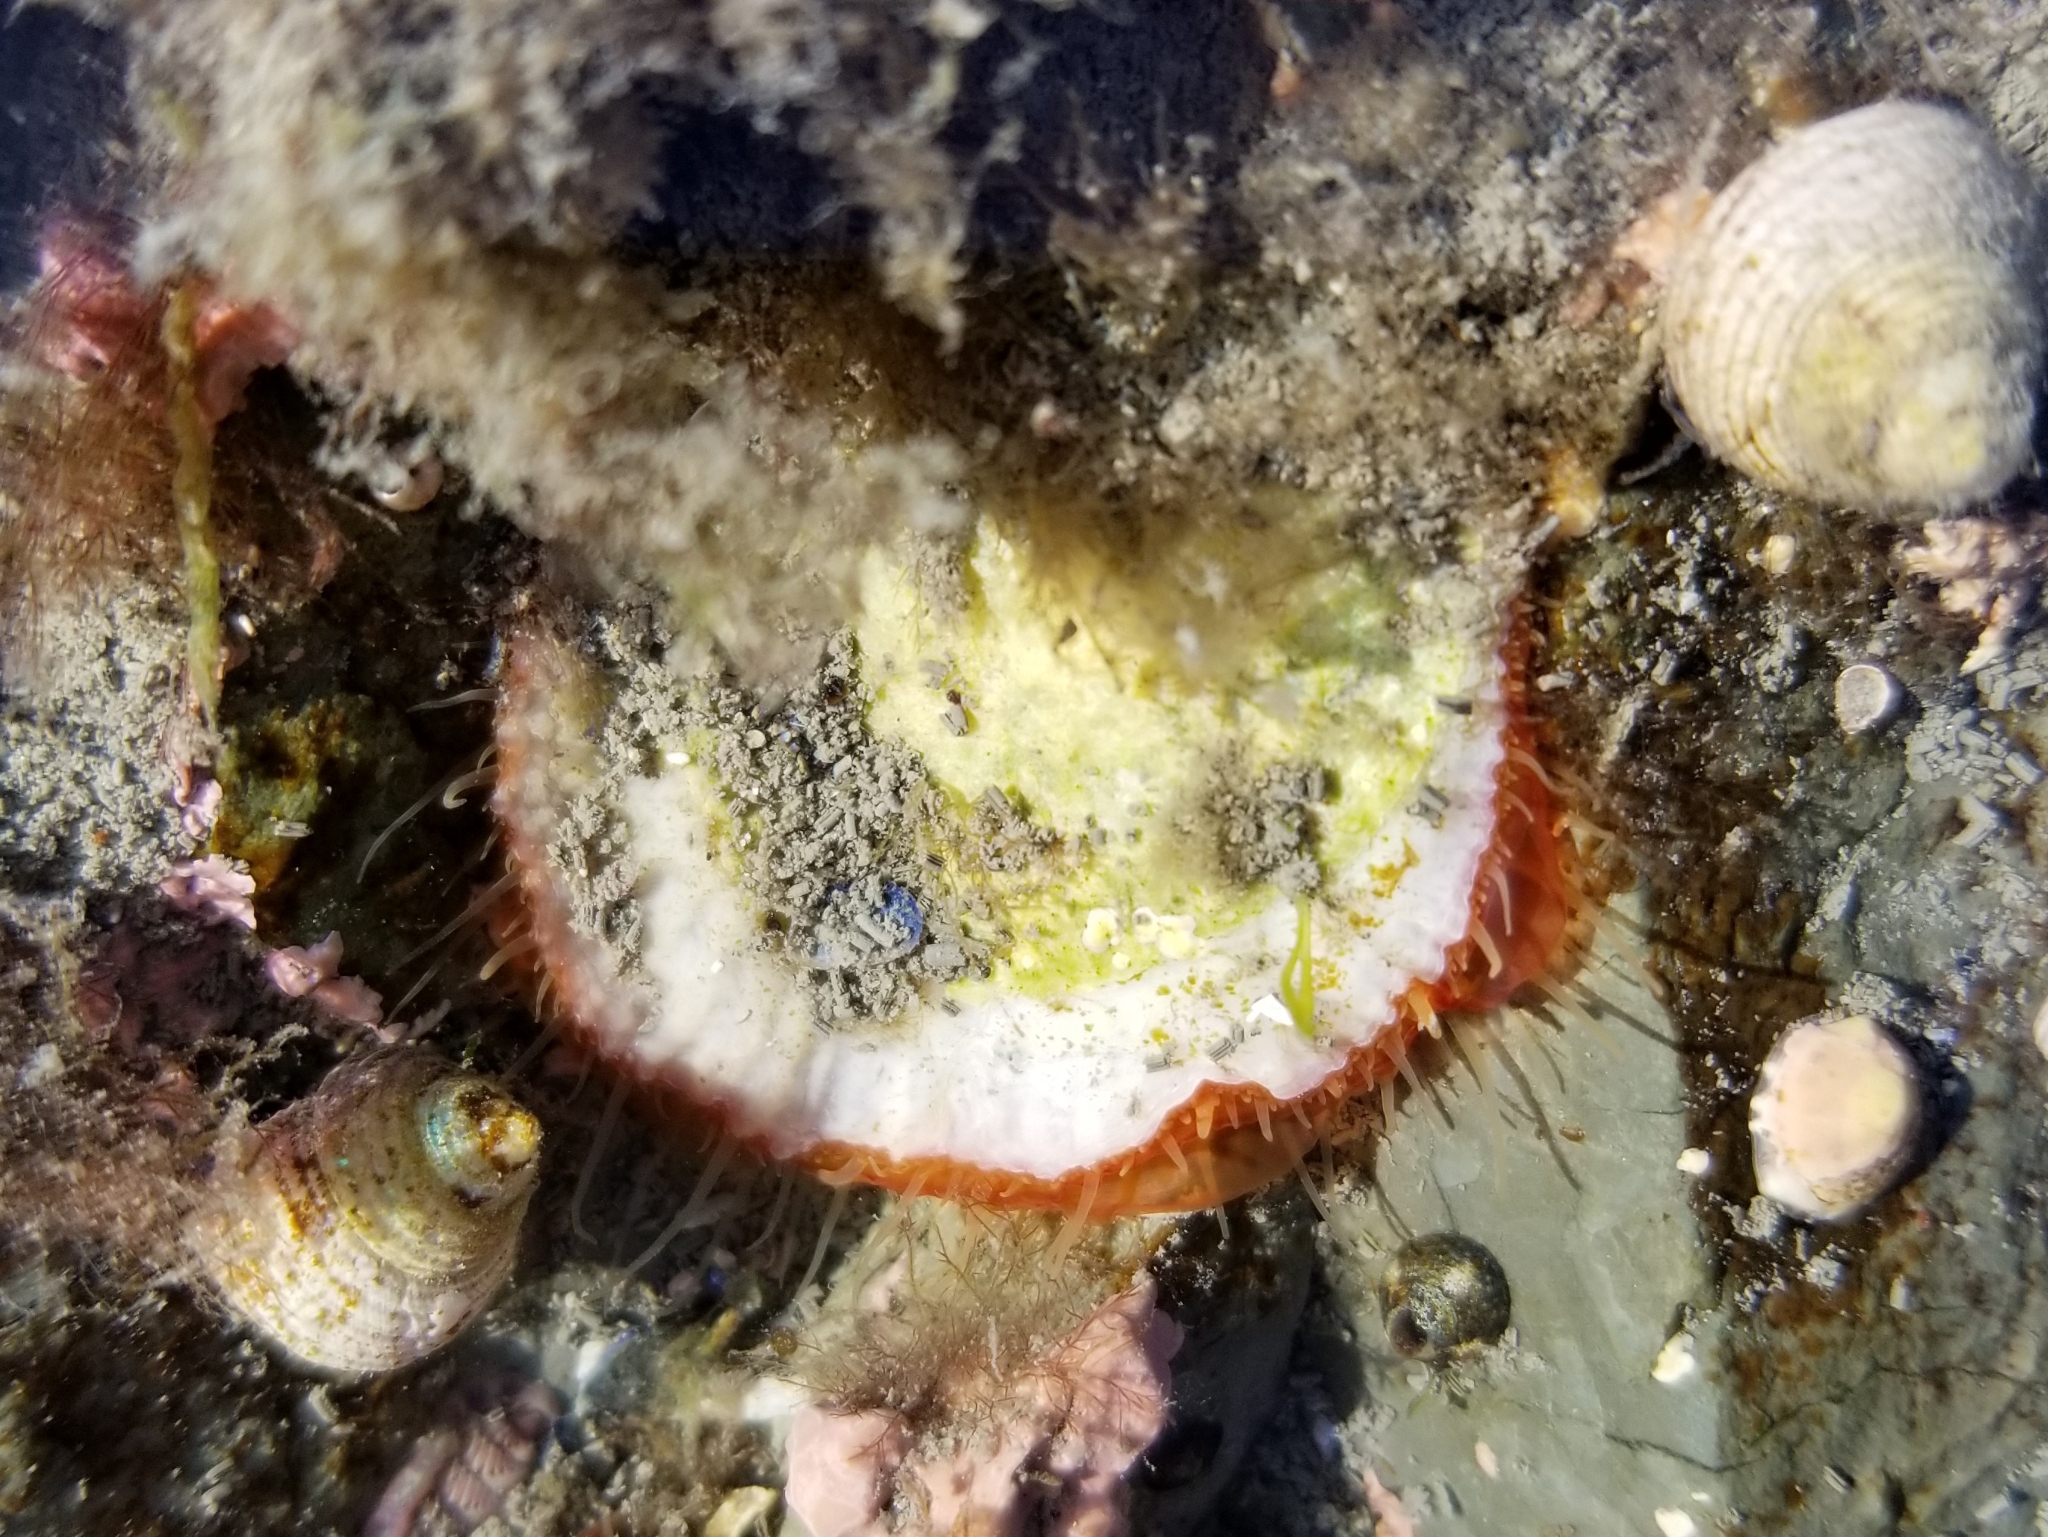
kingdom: Animalia
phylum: Mollusca
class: Bivalvia
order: Pectinida
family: Anomiidae
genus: Pododesmus
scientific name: Pododesmus macrochisma
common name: Alaska jingle
